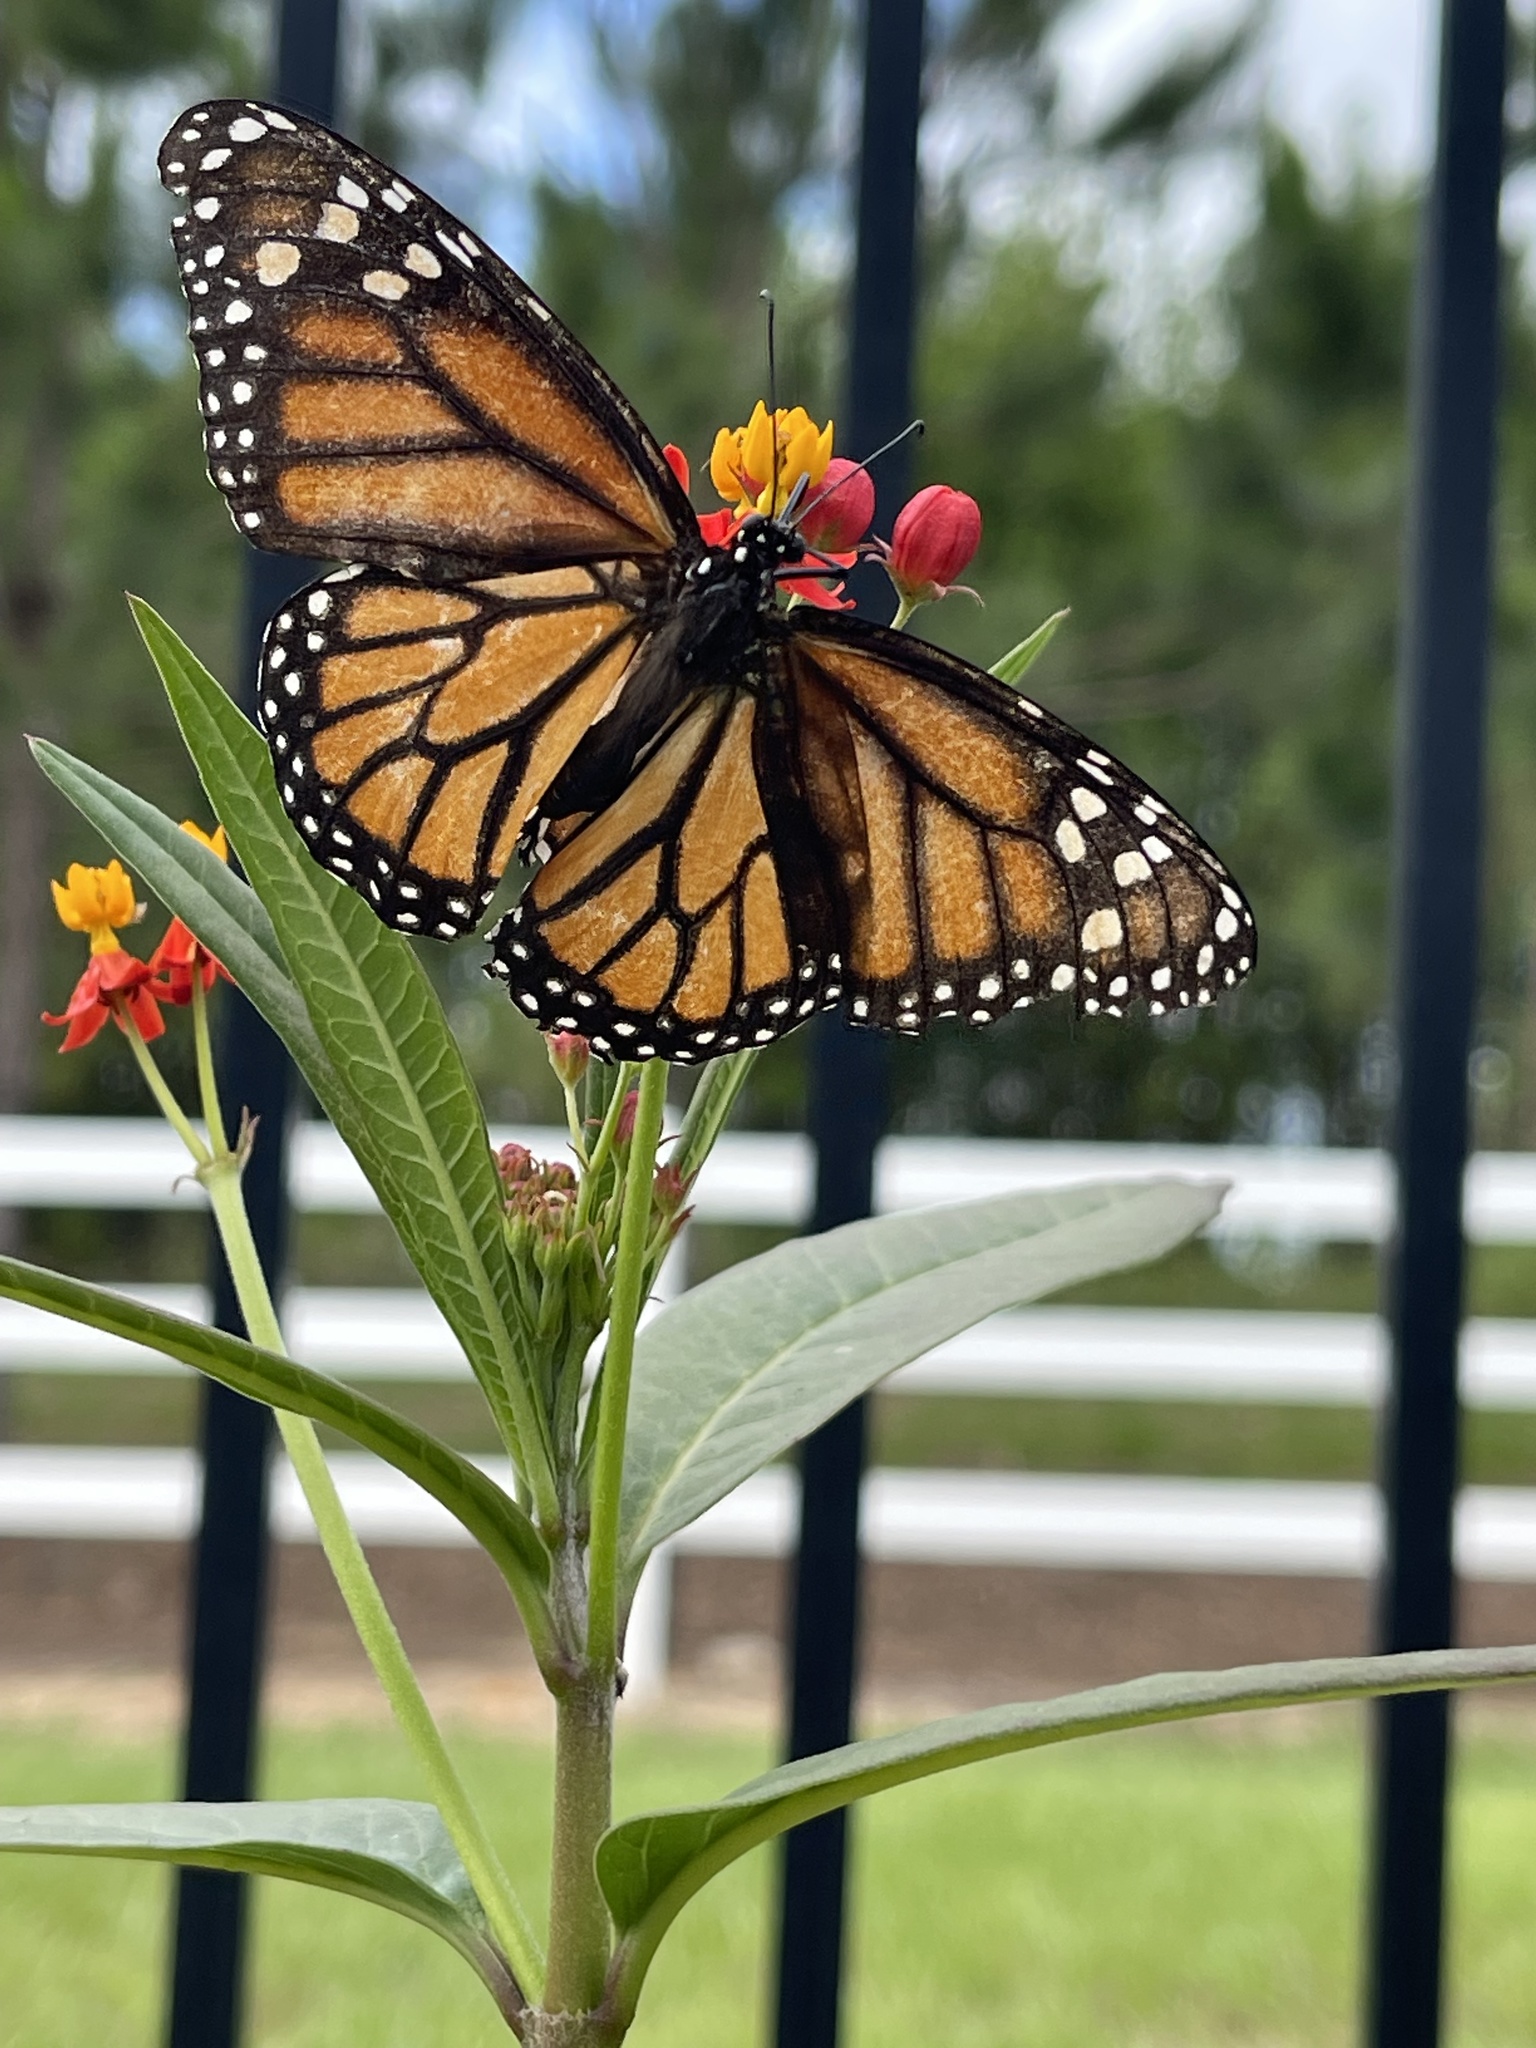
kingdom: Animalia
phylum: Arthropoda
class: Insecta
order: Lepidoptera
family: Nymphalidae
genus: Danaus
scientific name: Danaus plexippus
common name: Monarch
